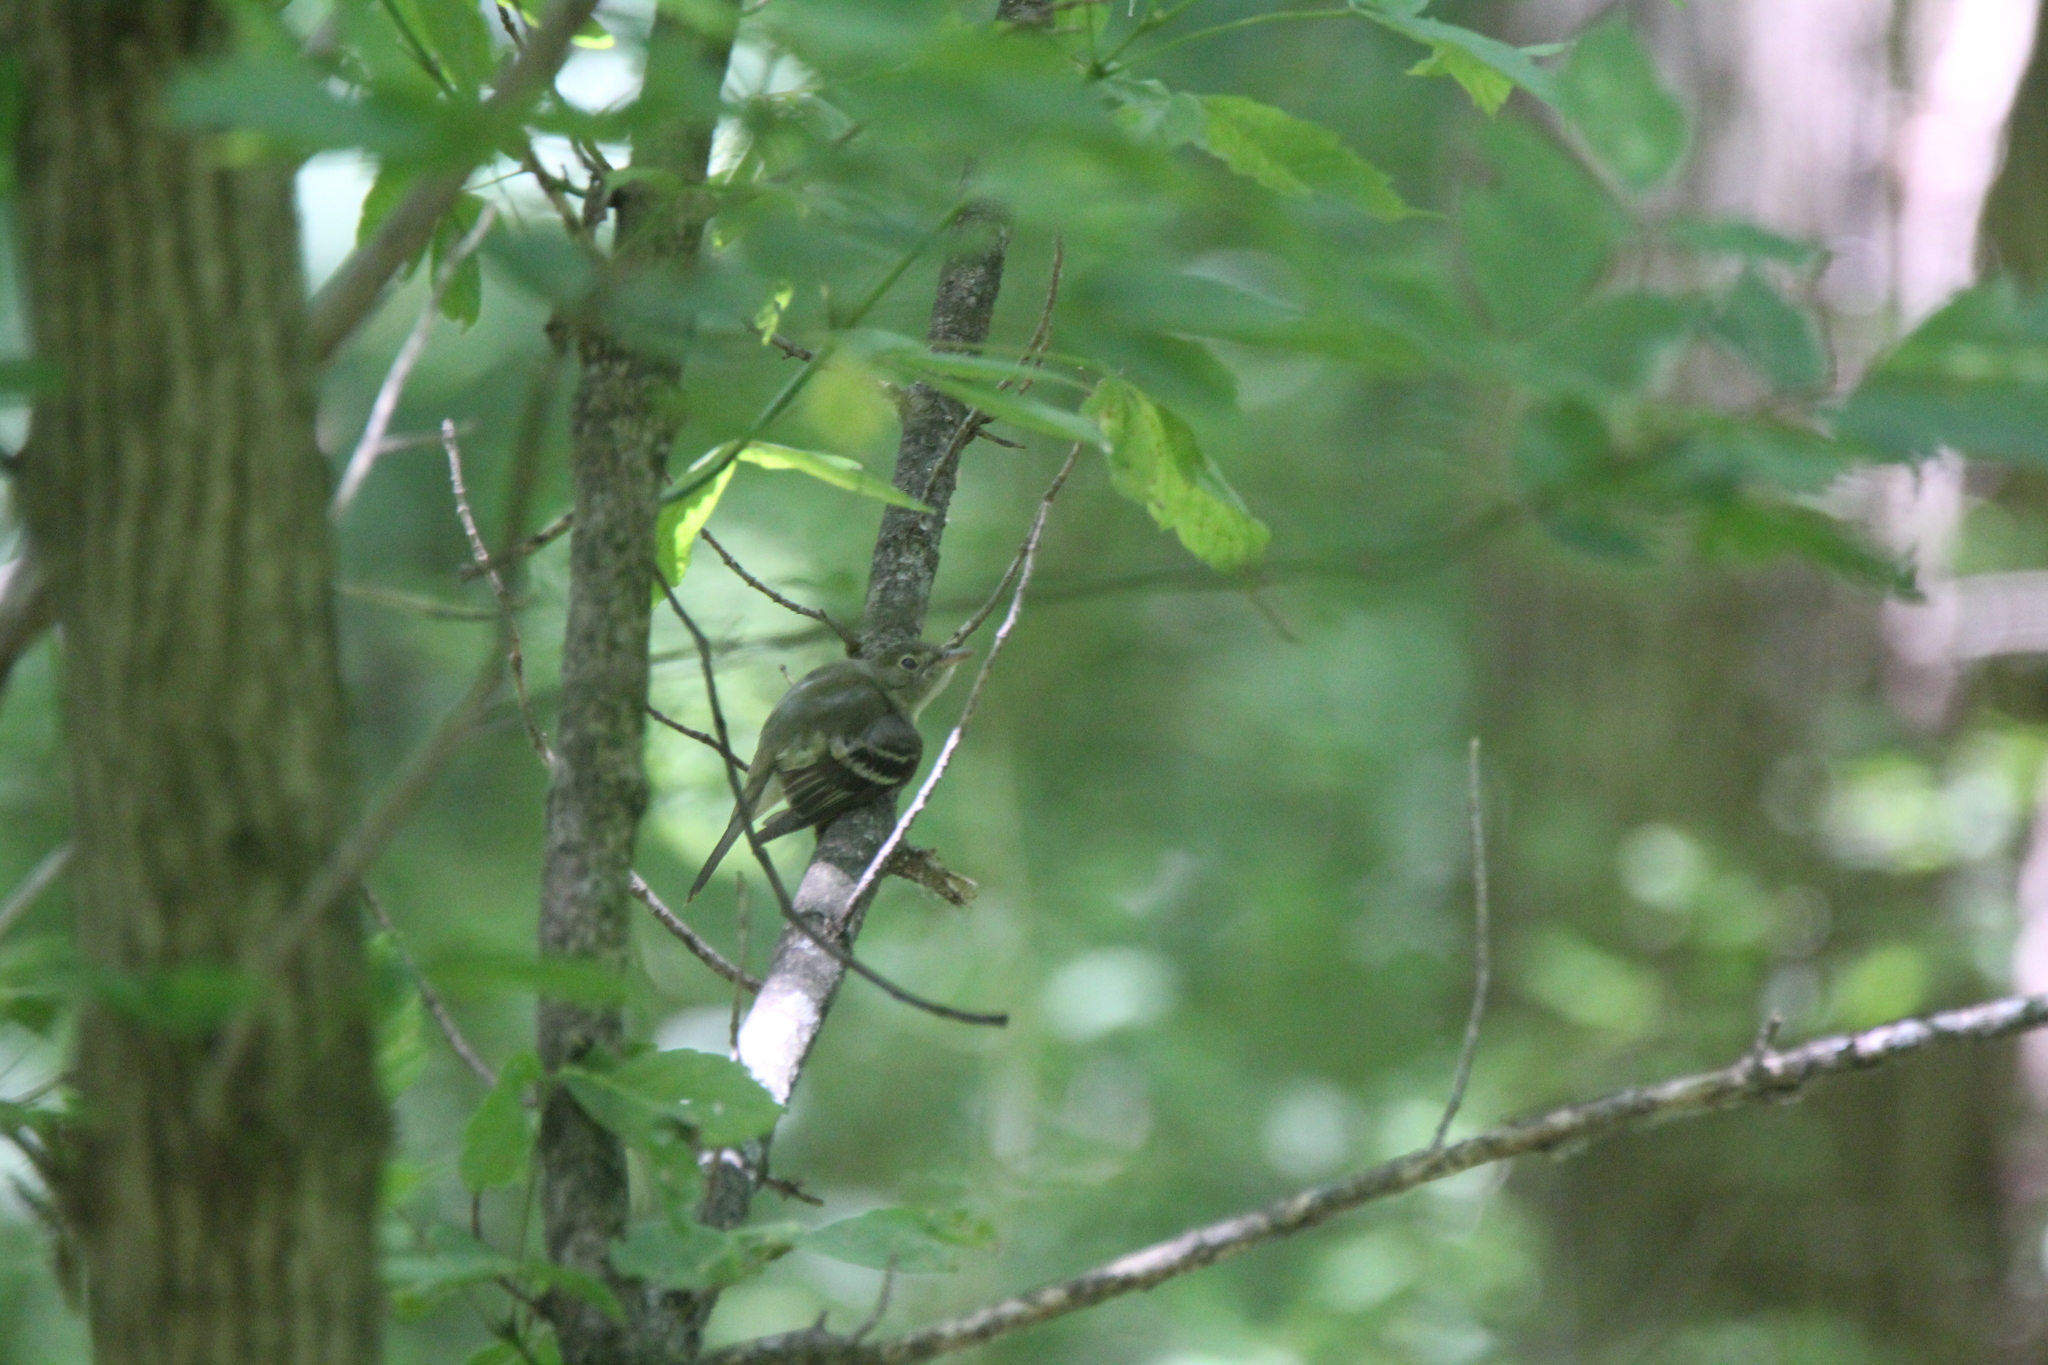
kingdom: Animalia
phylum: Chordata
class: Aves
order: Passeriformes
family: Tyrannidae
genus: Empidonax
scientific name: Empidonax virescens
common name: Acadian flycatcher
